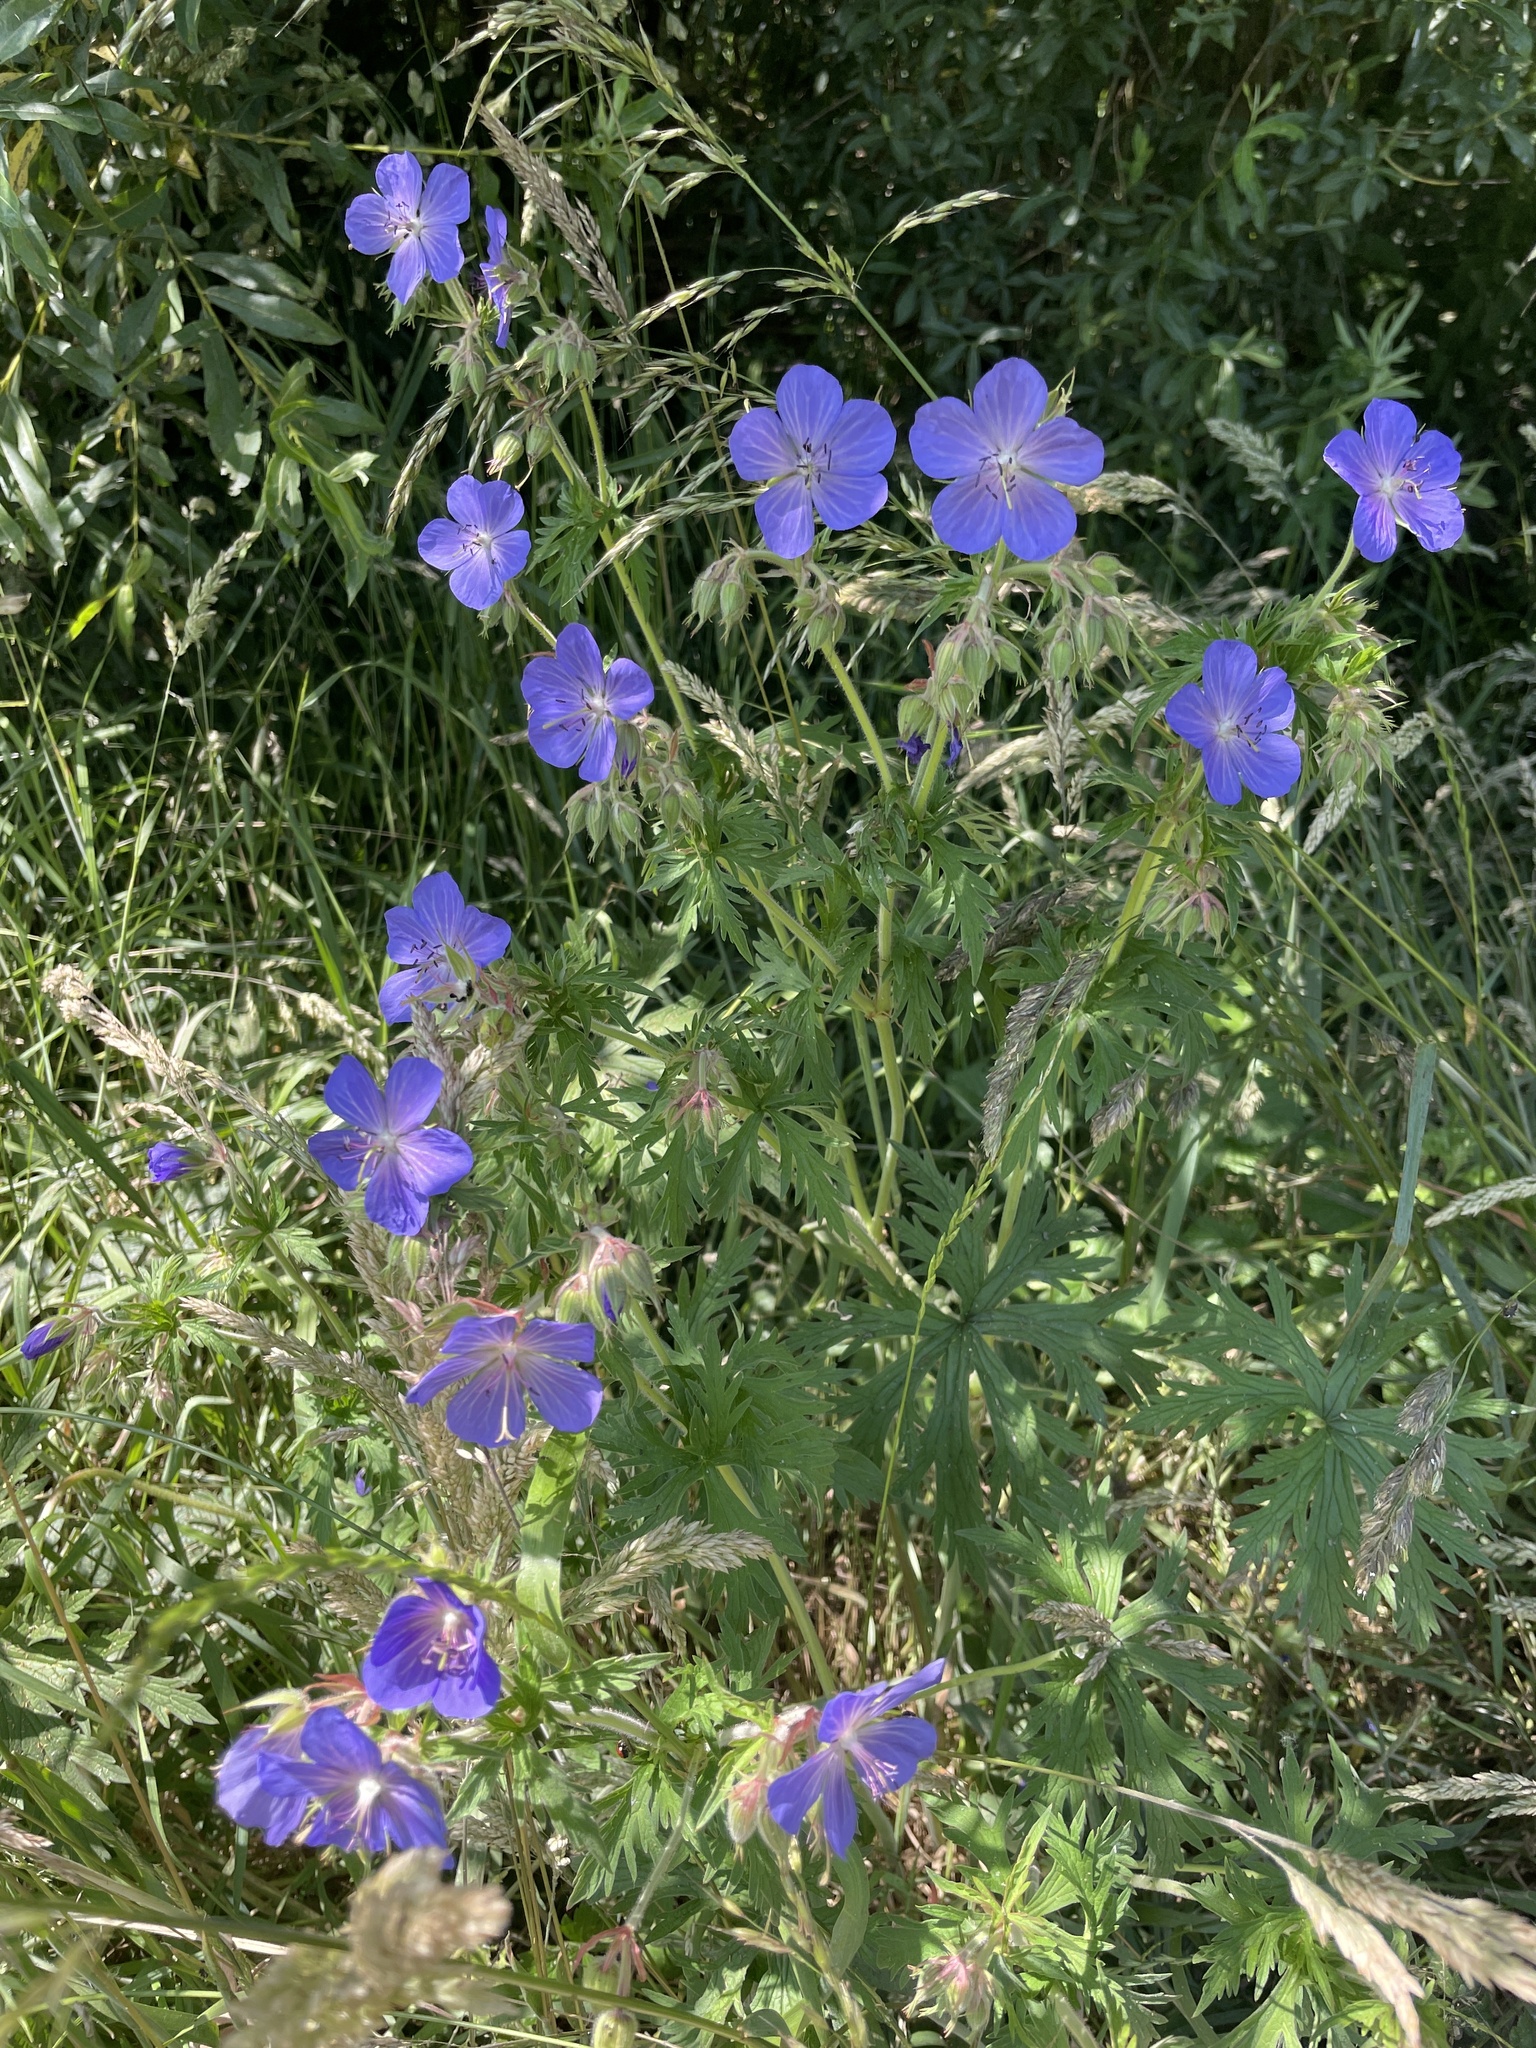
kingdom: Plantae
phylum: Tracheophyta
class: Magnoliopsida
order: Geraniales
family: Geraniaceae
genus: Geranium
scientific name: Geranium pratense
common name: Meadow crane's-bill
